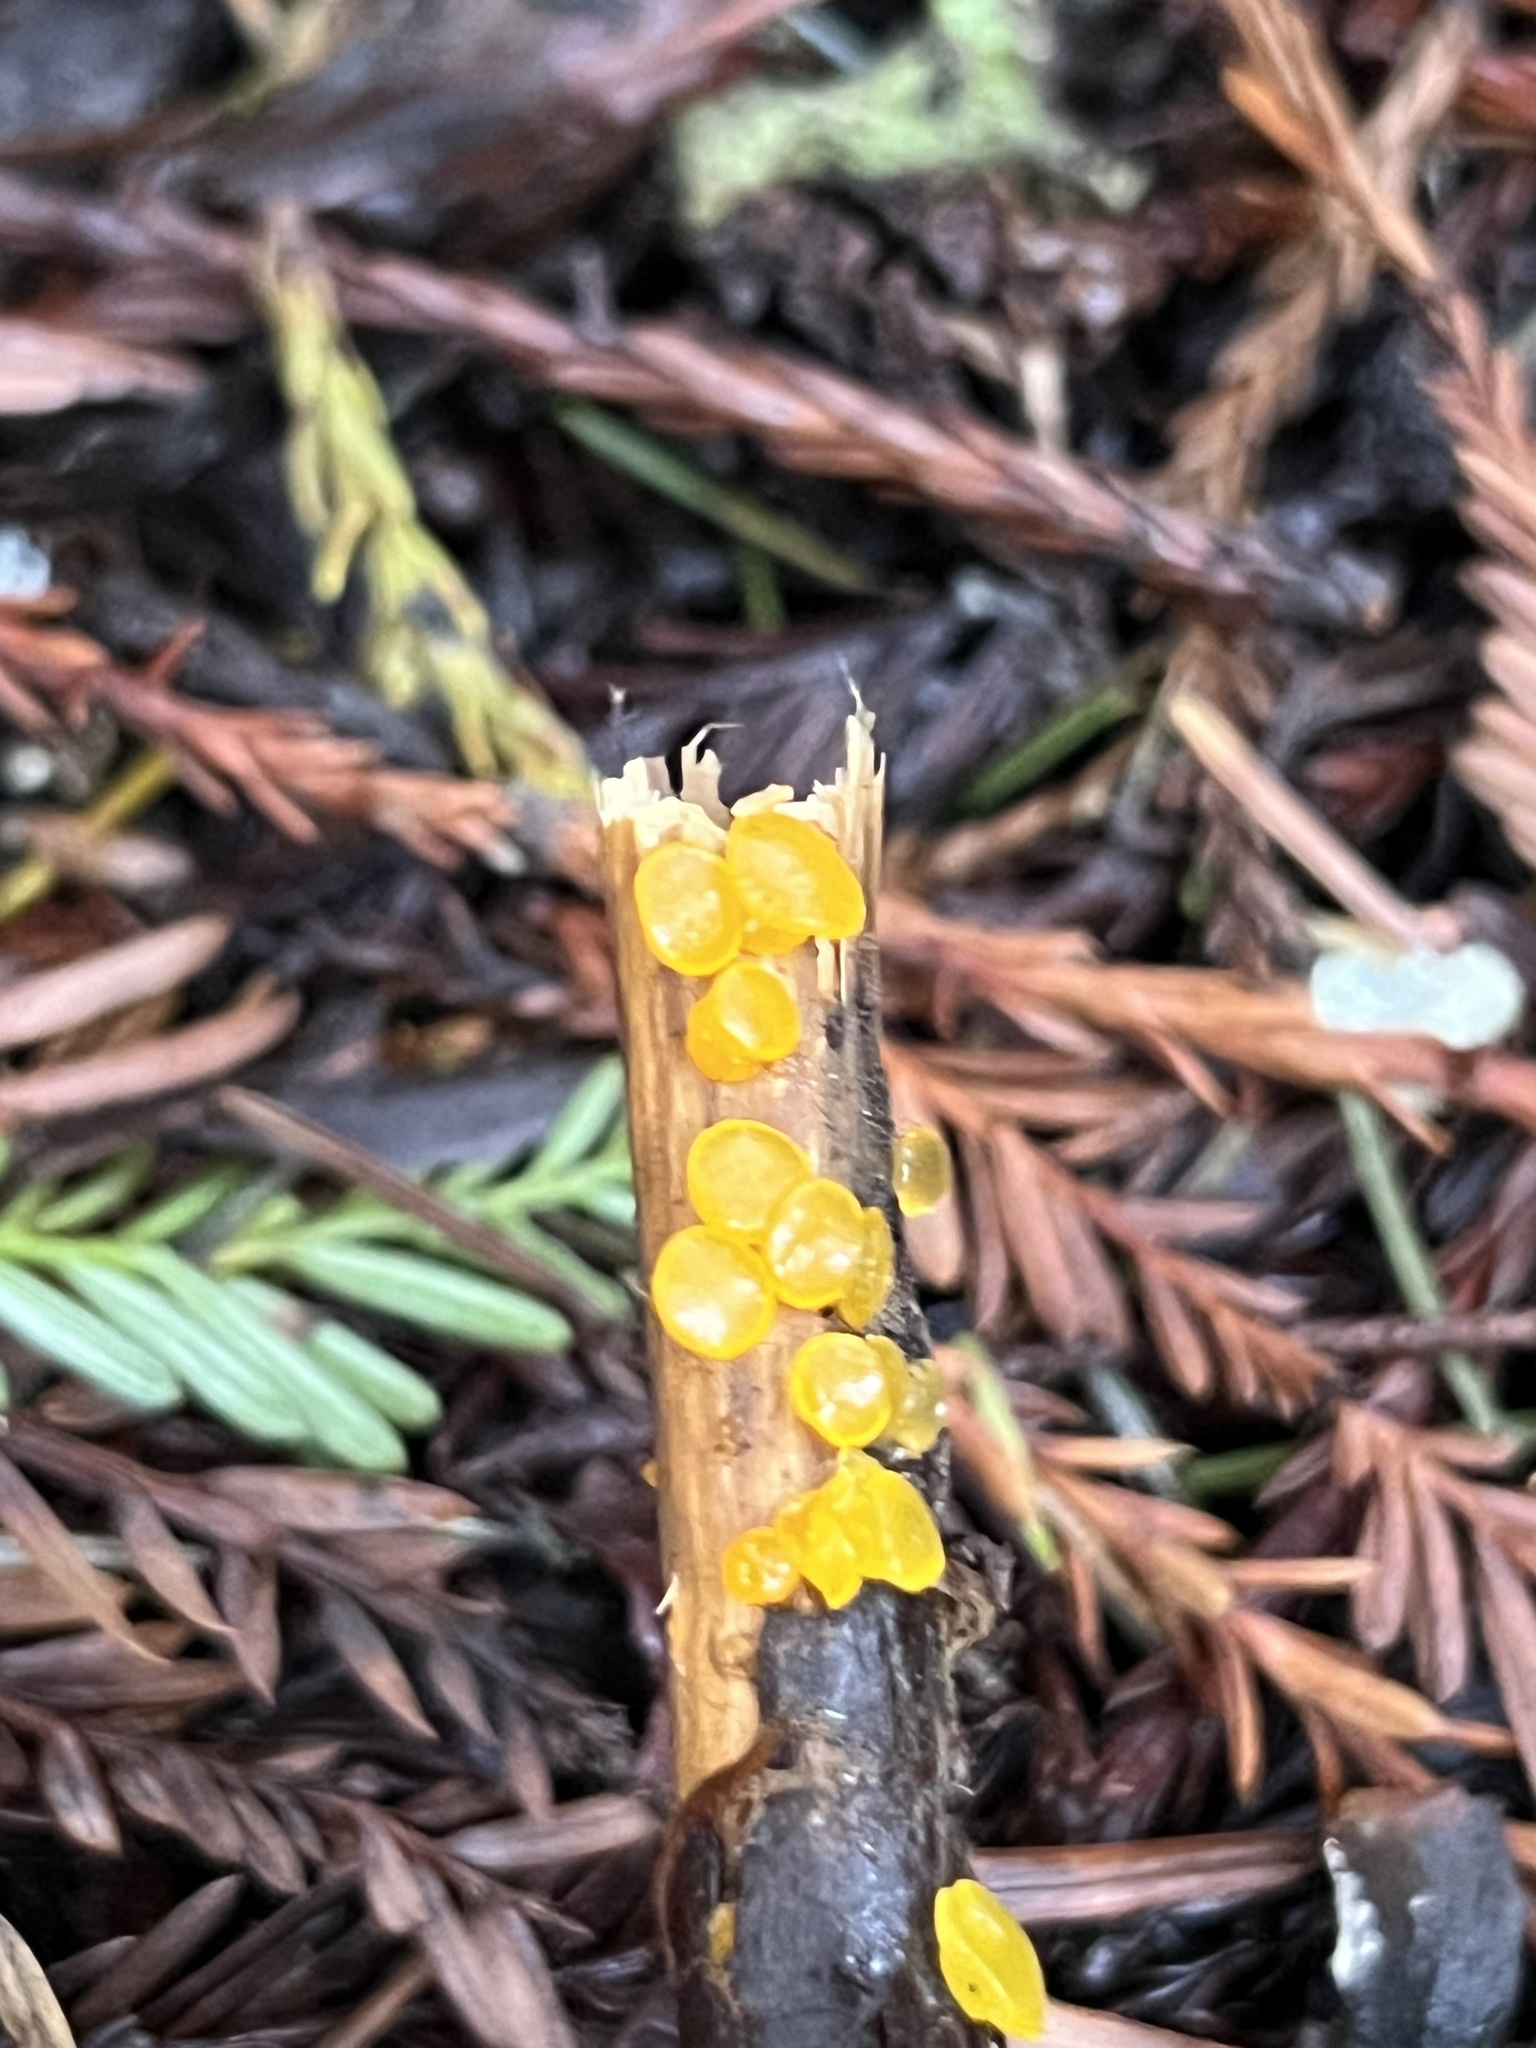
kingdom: Fungi
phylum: Basidiomycota
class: Dacrymycetes
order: Dacrymycetales
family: Dacrymycetaceae
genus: Dacrymyces
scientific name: Dacrymyces capitatus
